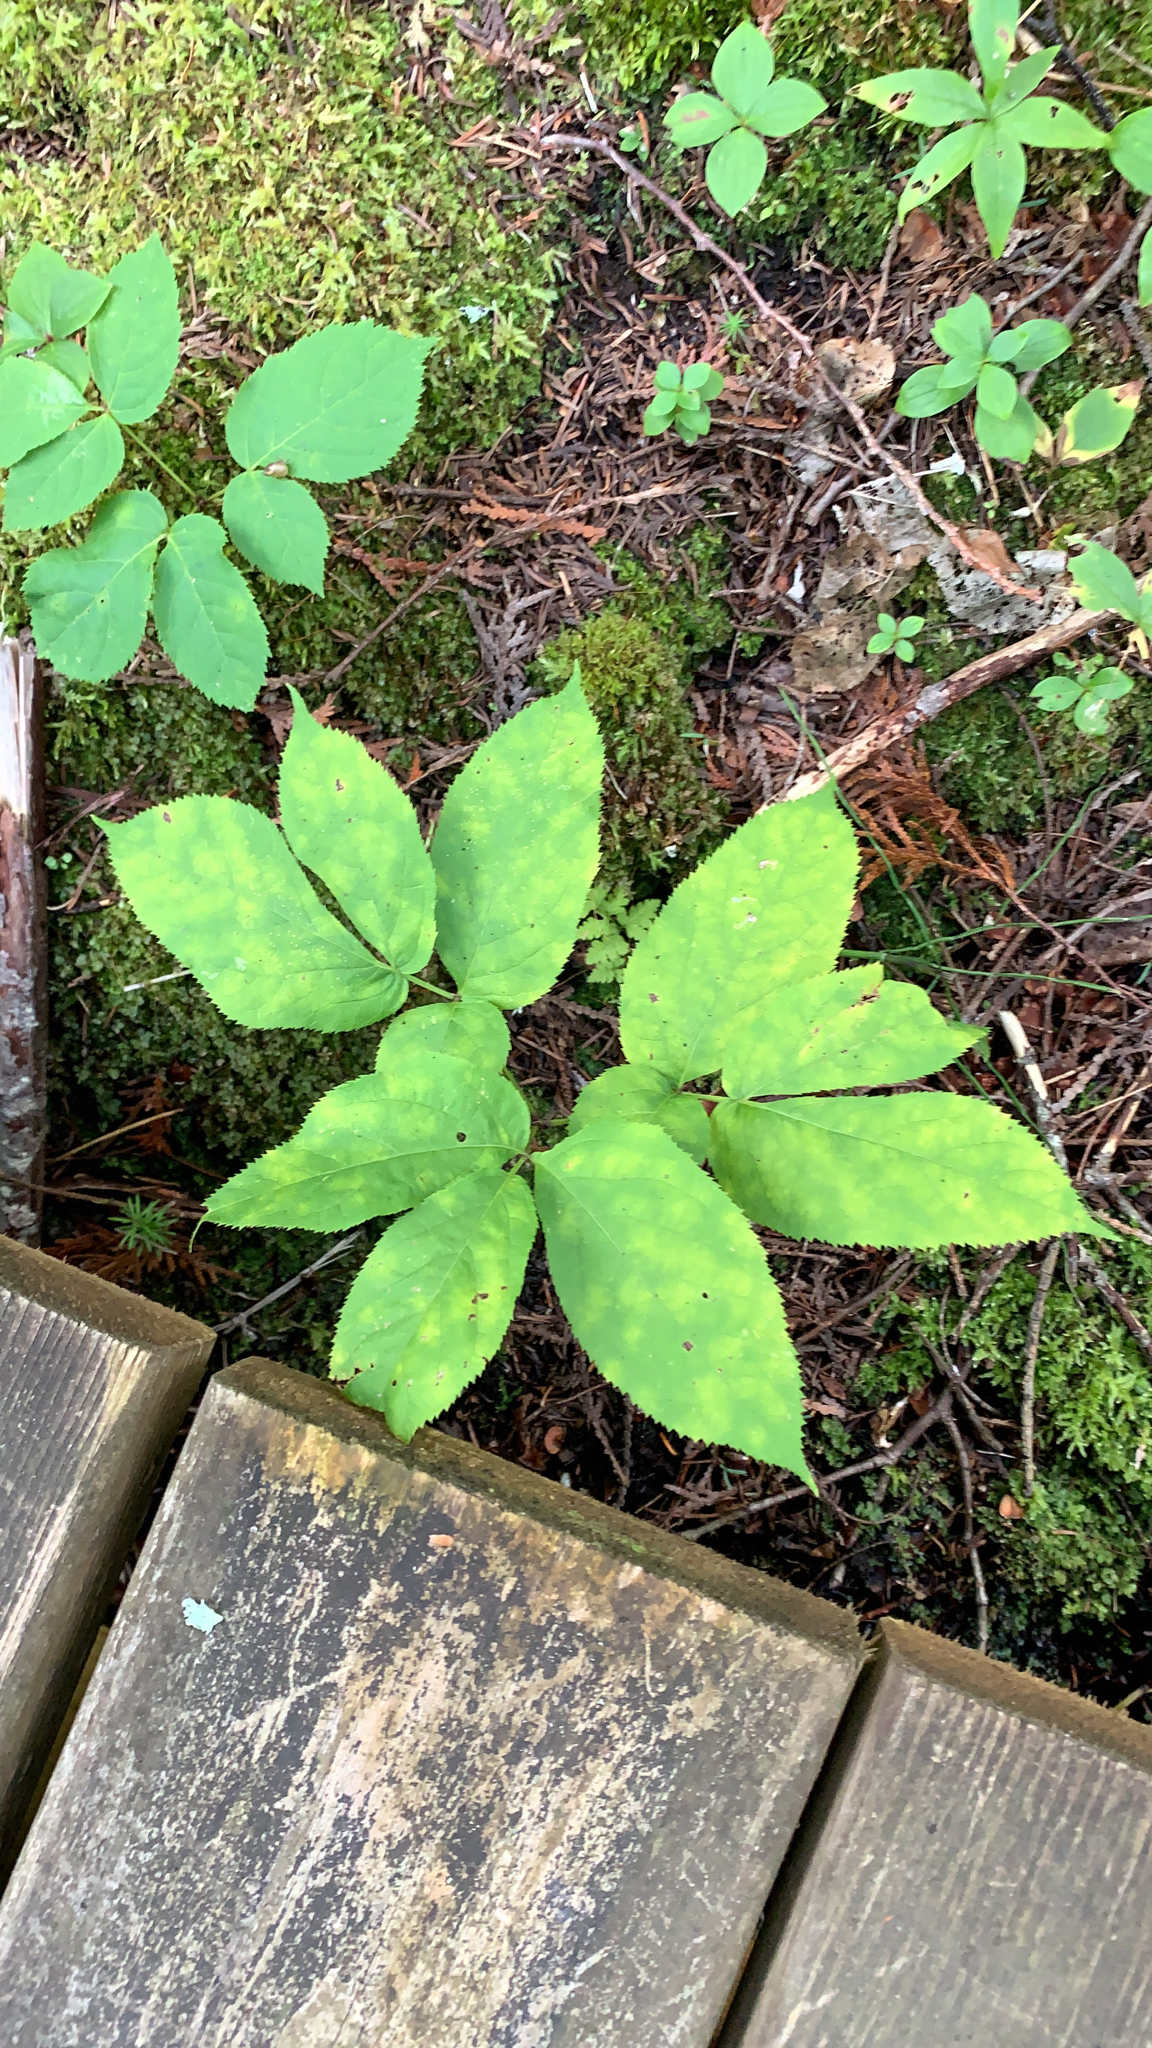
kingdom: Plantae
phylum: Tracheophyta
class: Magnoliopsida
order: Apiales
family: Araliaceae
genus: Aralia
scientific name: Aralia nudicaulis
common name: Wild sarsaparilla
